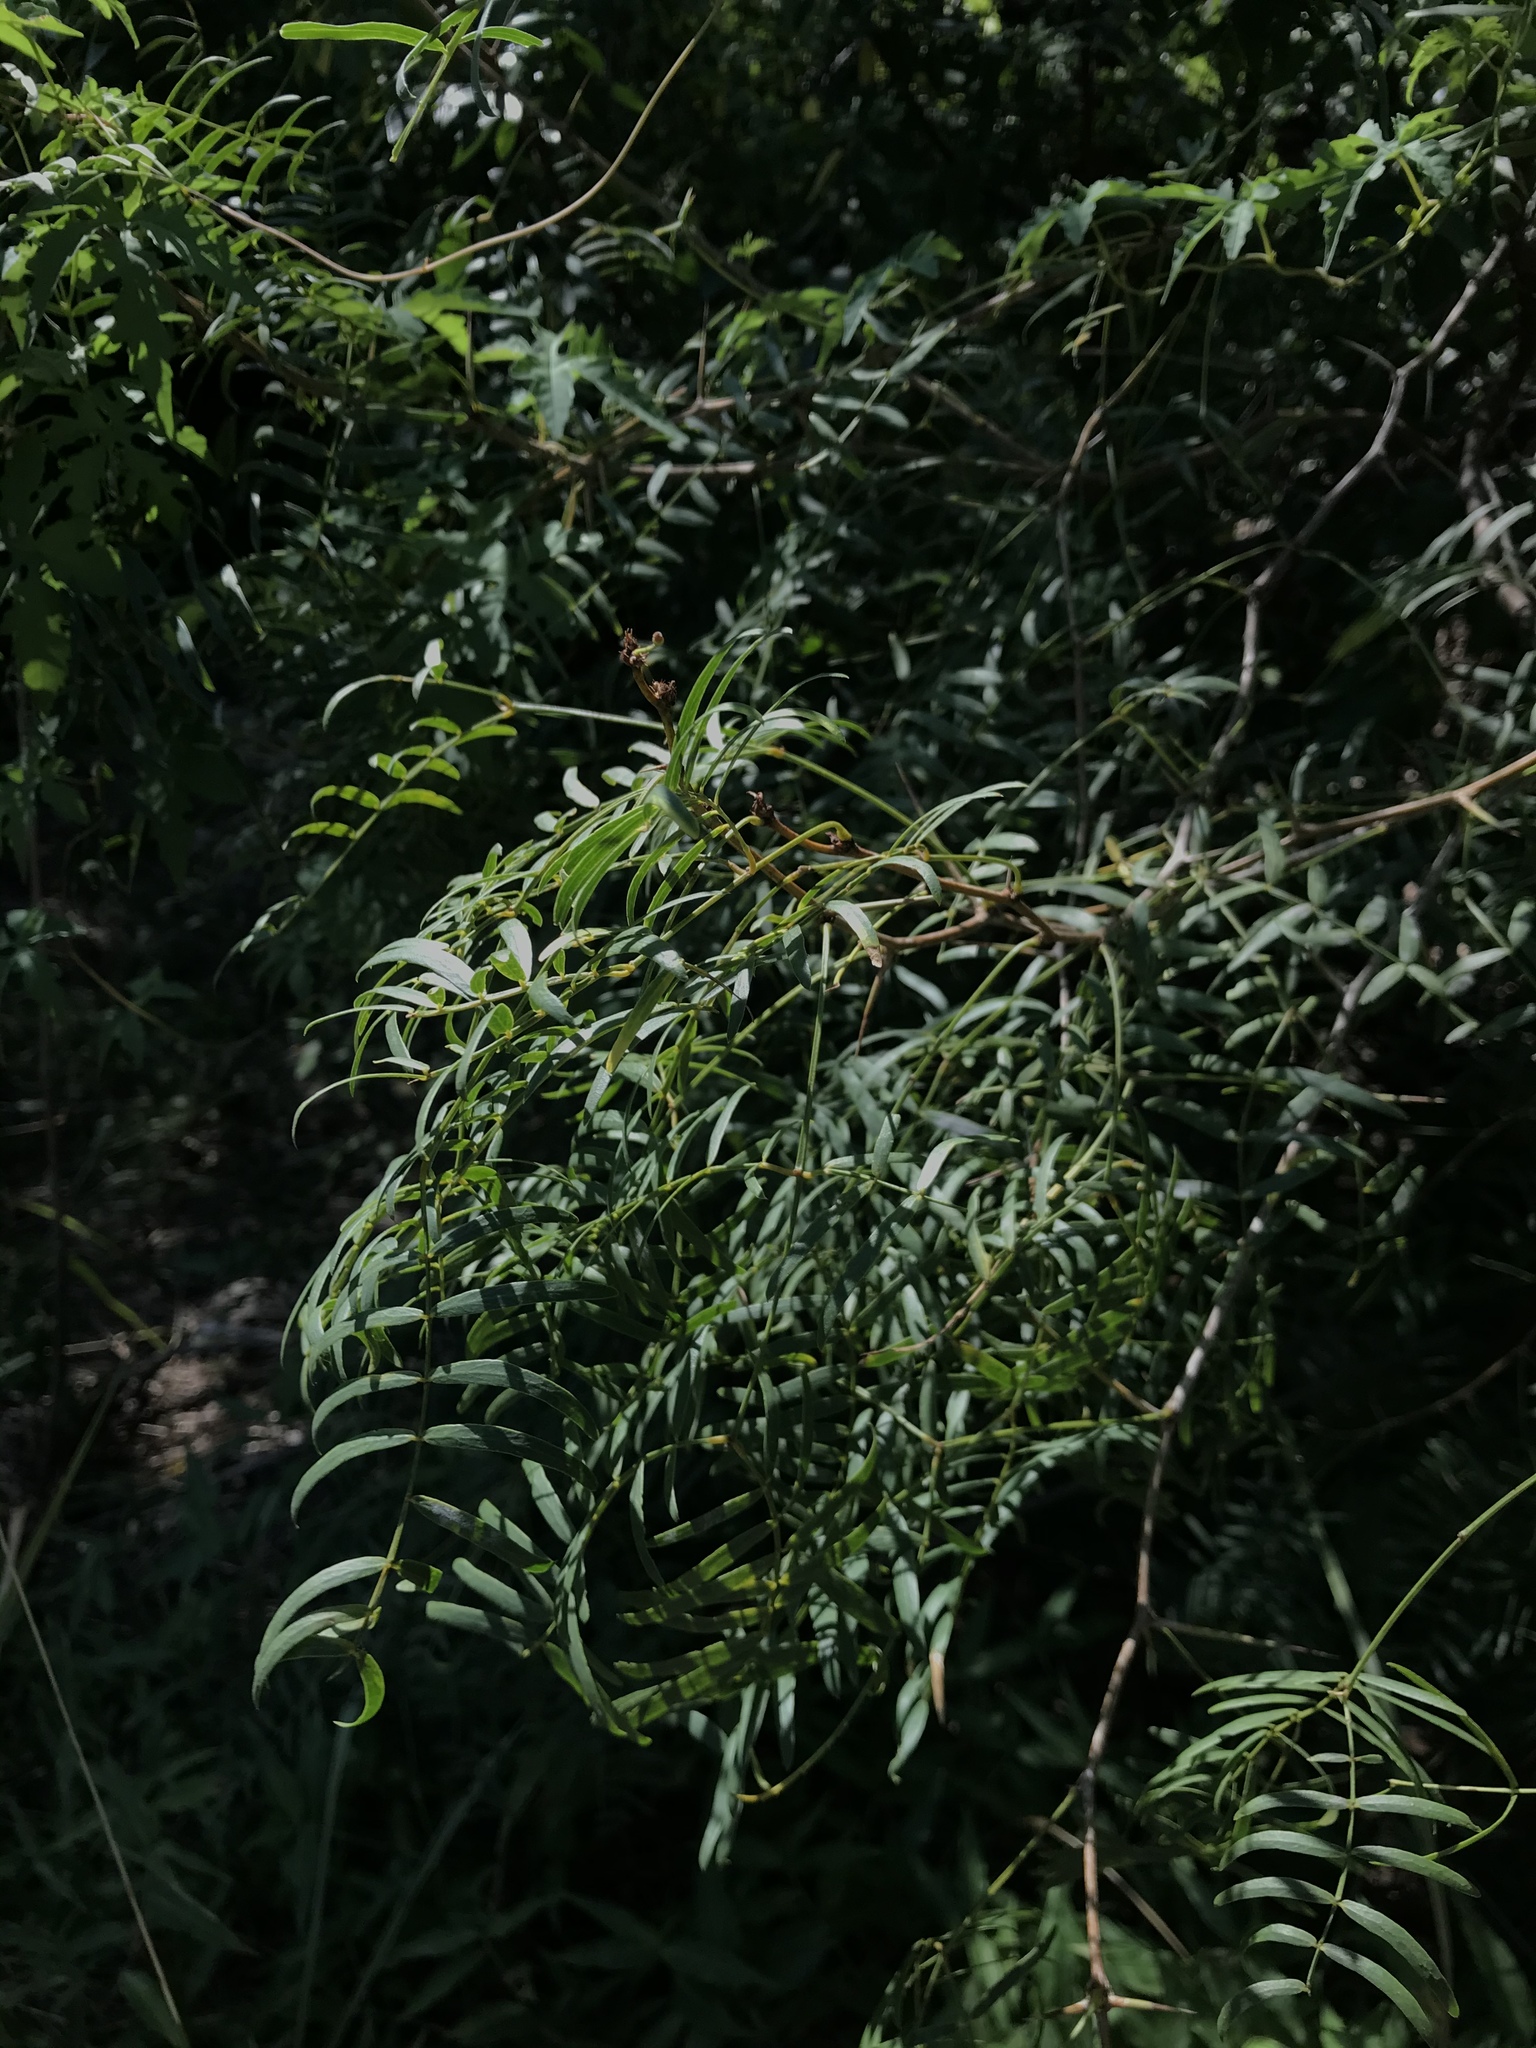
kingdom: Plantae
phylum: Tracheophyta
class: Magnoliopsida
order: Fabales
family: Fabaceae
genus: Prosopis
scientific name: Prosopis glandulosa
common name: Honey mesquite
